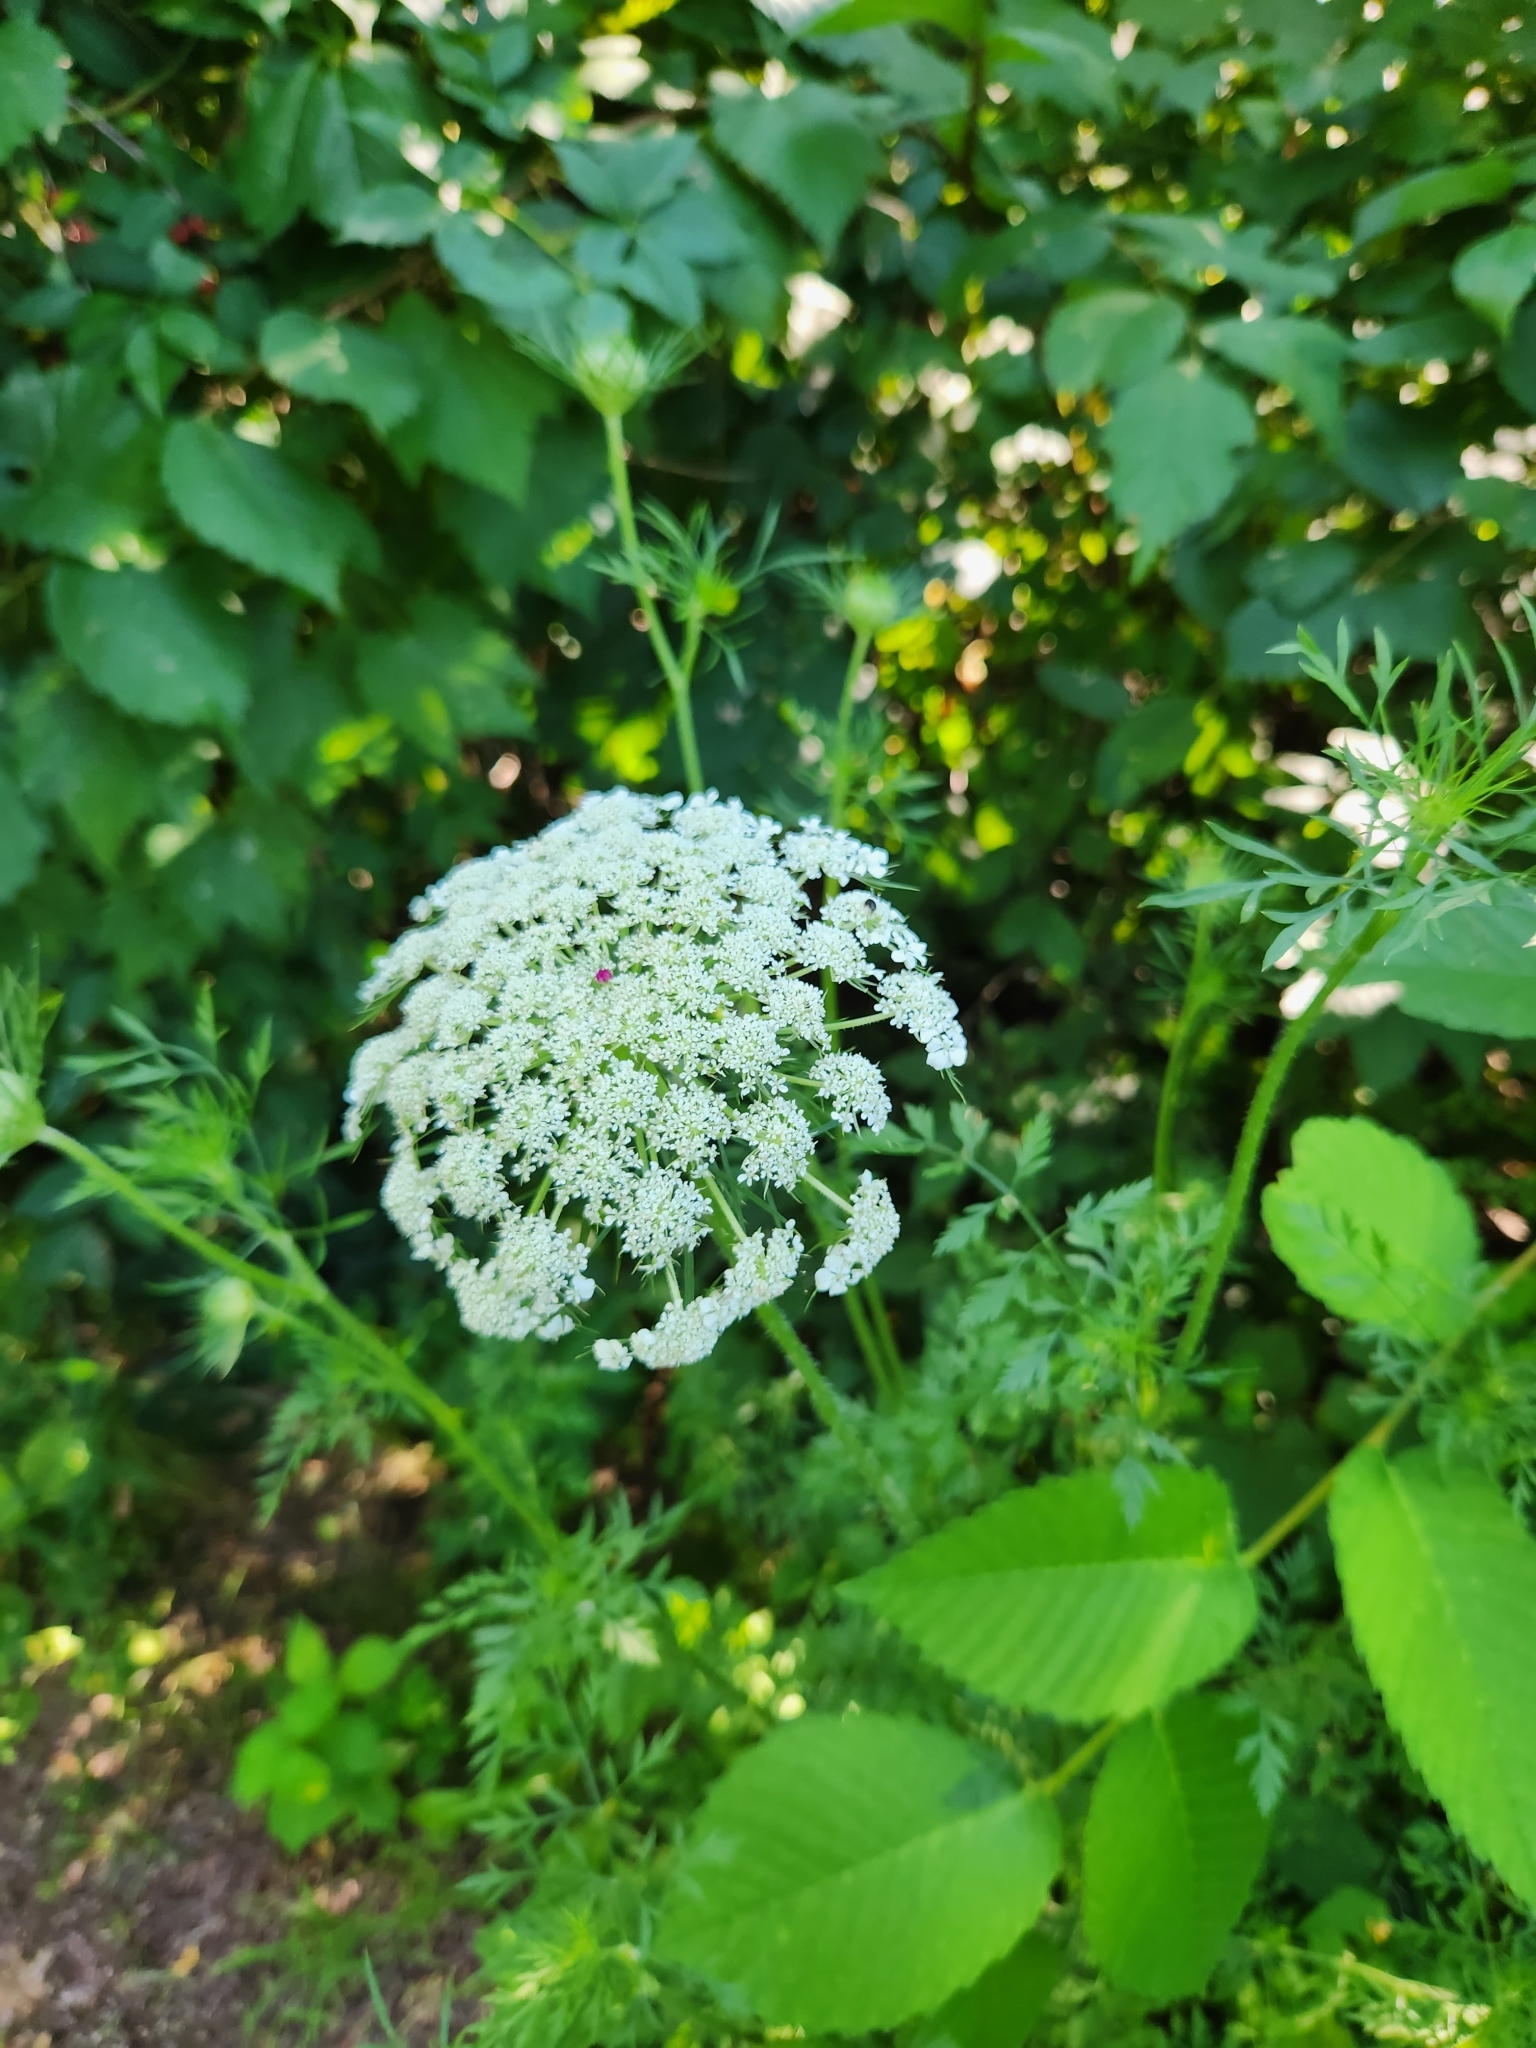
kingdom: Plantae
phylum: Tracheophyta
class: Magnoliopsida
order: Apiales
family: Apiaceae
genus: Daucus
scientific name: Daucus carota
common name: Wild carrot
